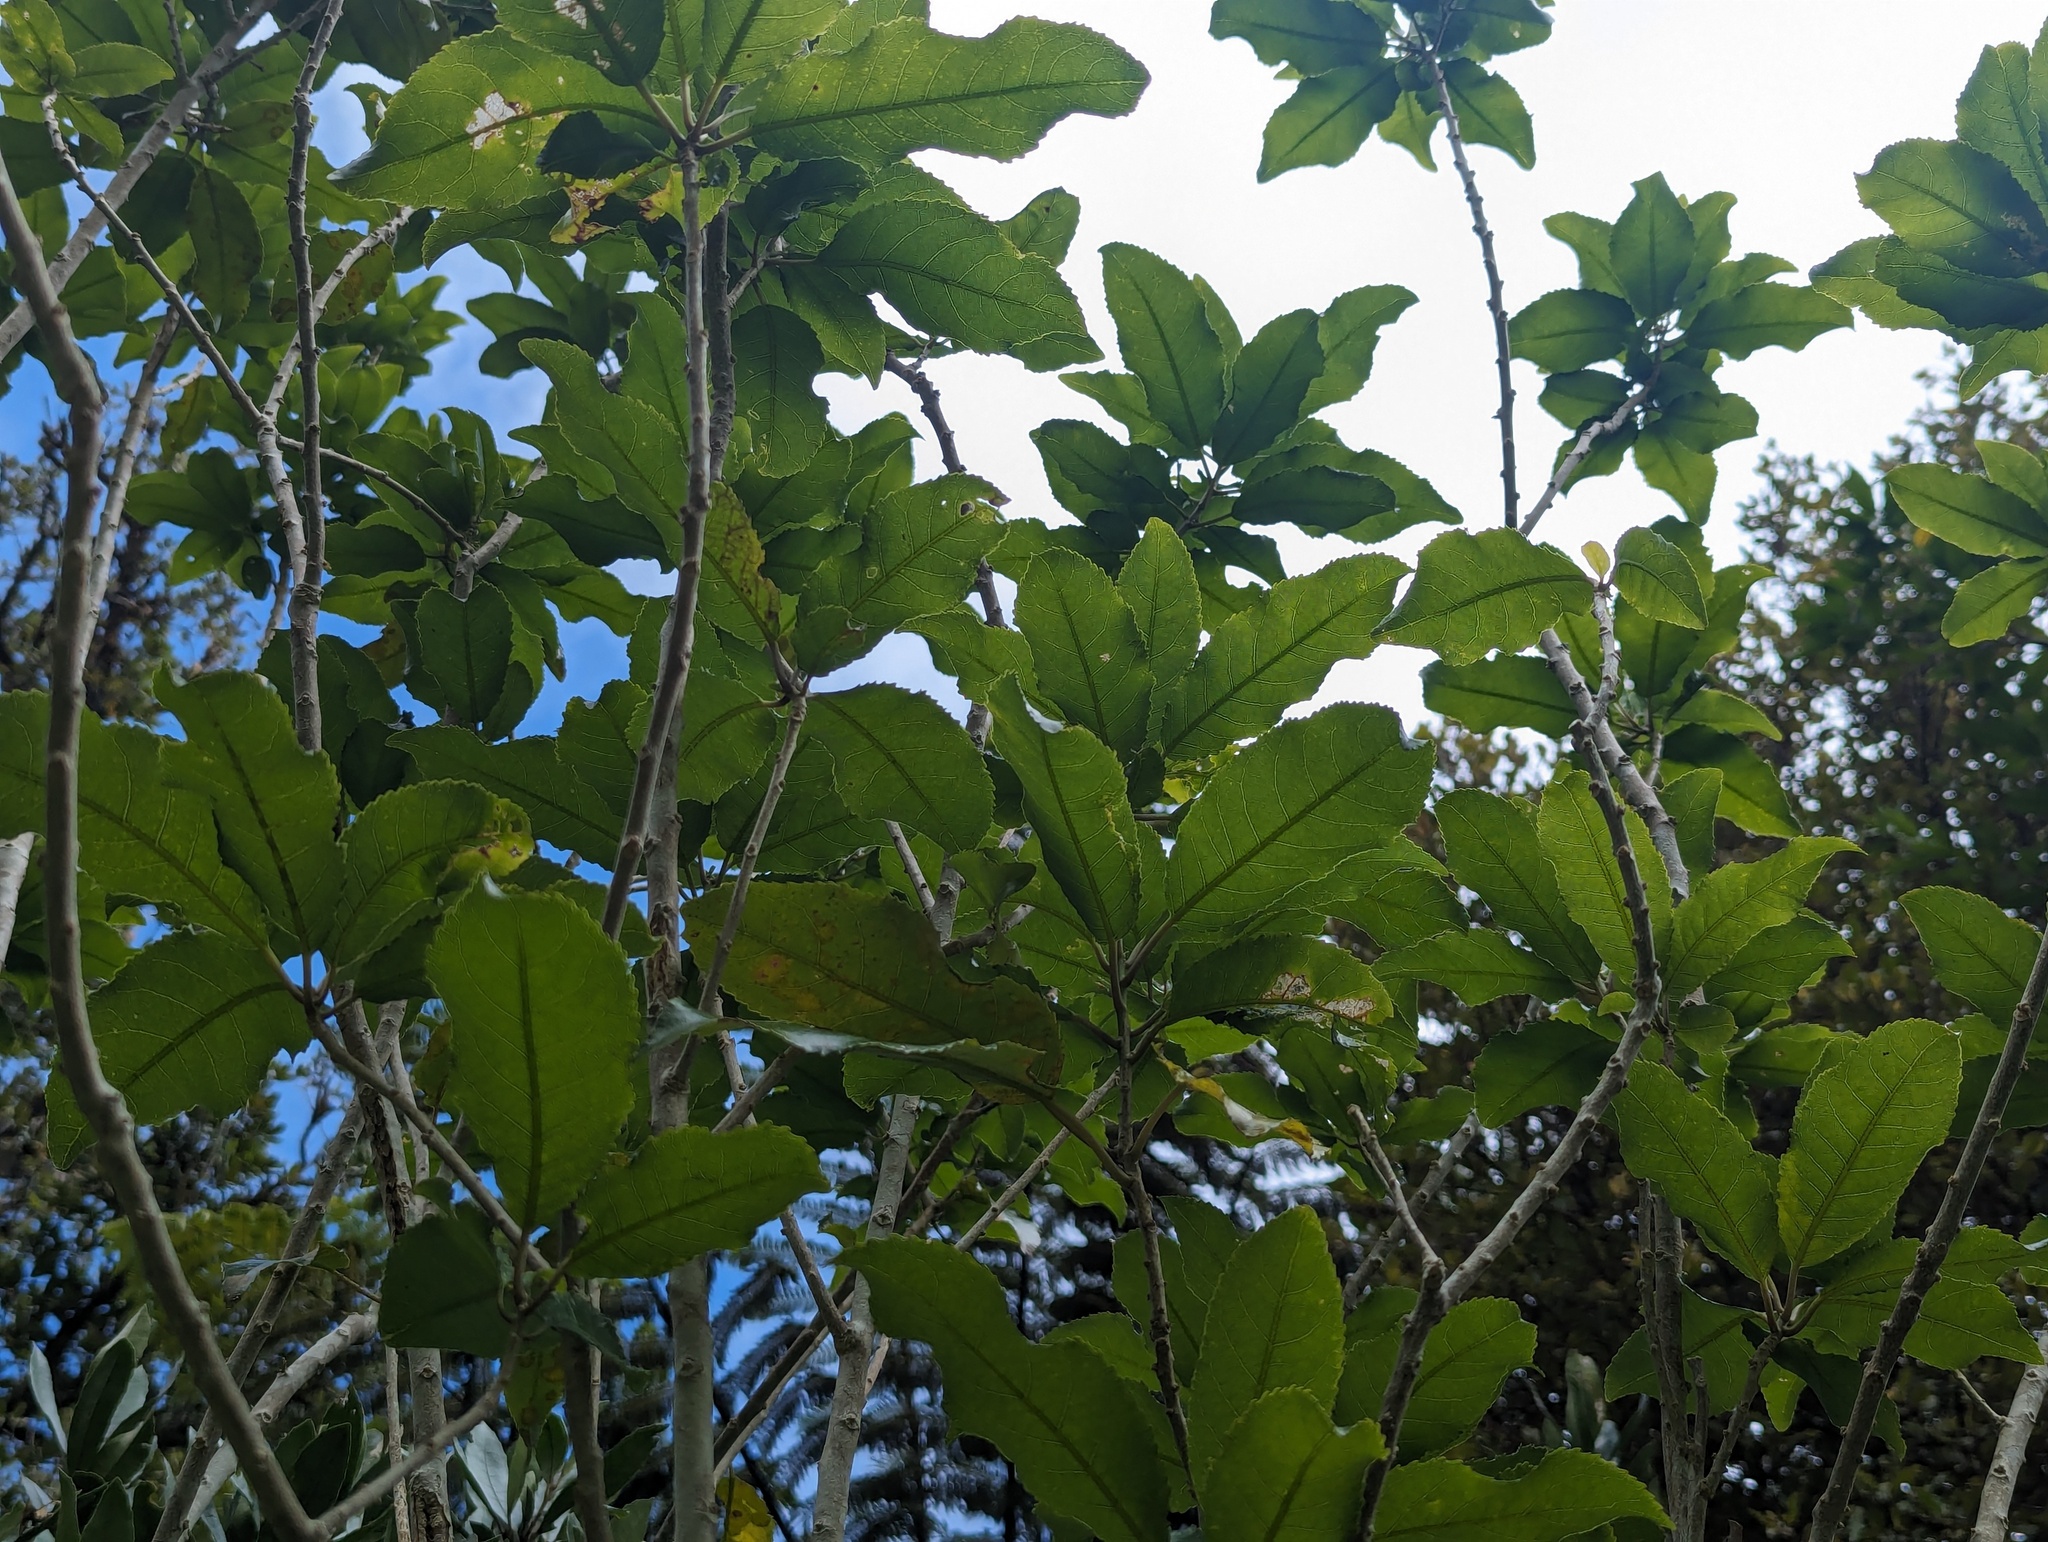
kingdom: Plantae
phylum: Tracheophyta
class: Magnoliopsida
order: Malpighiales
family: Violaceae
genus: Melicytus
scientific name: Melicytus ramiflorus
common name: Mahoe
